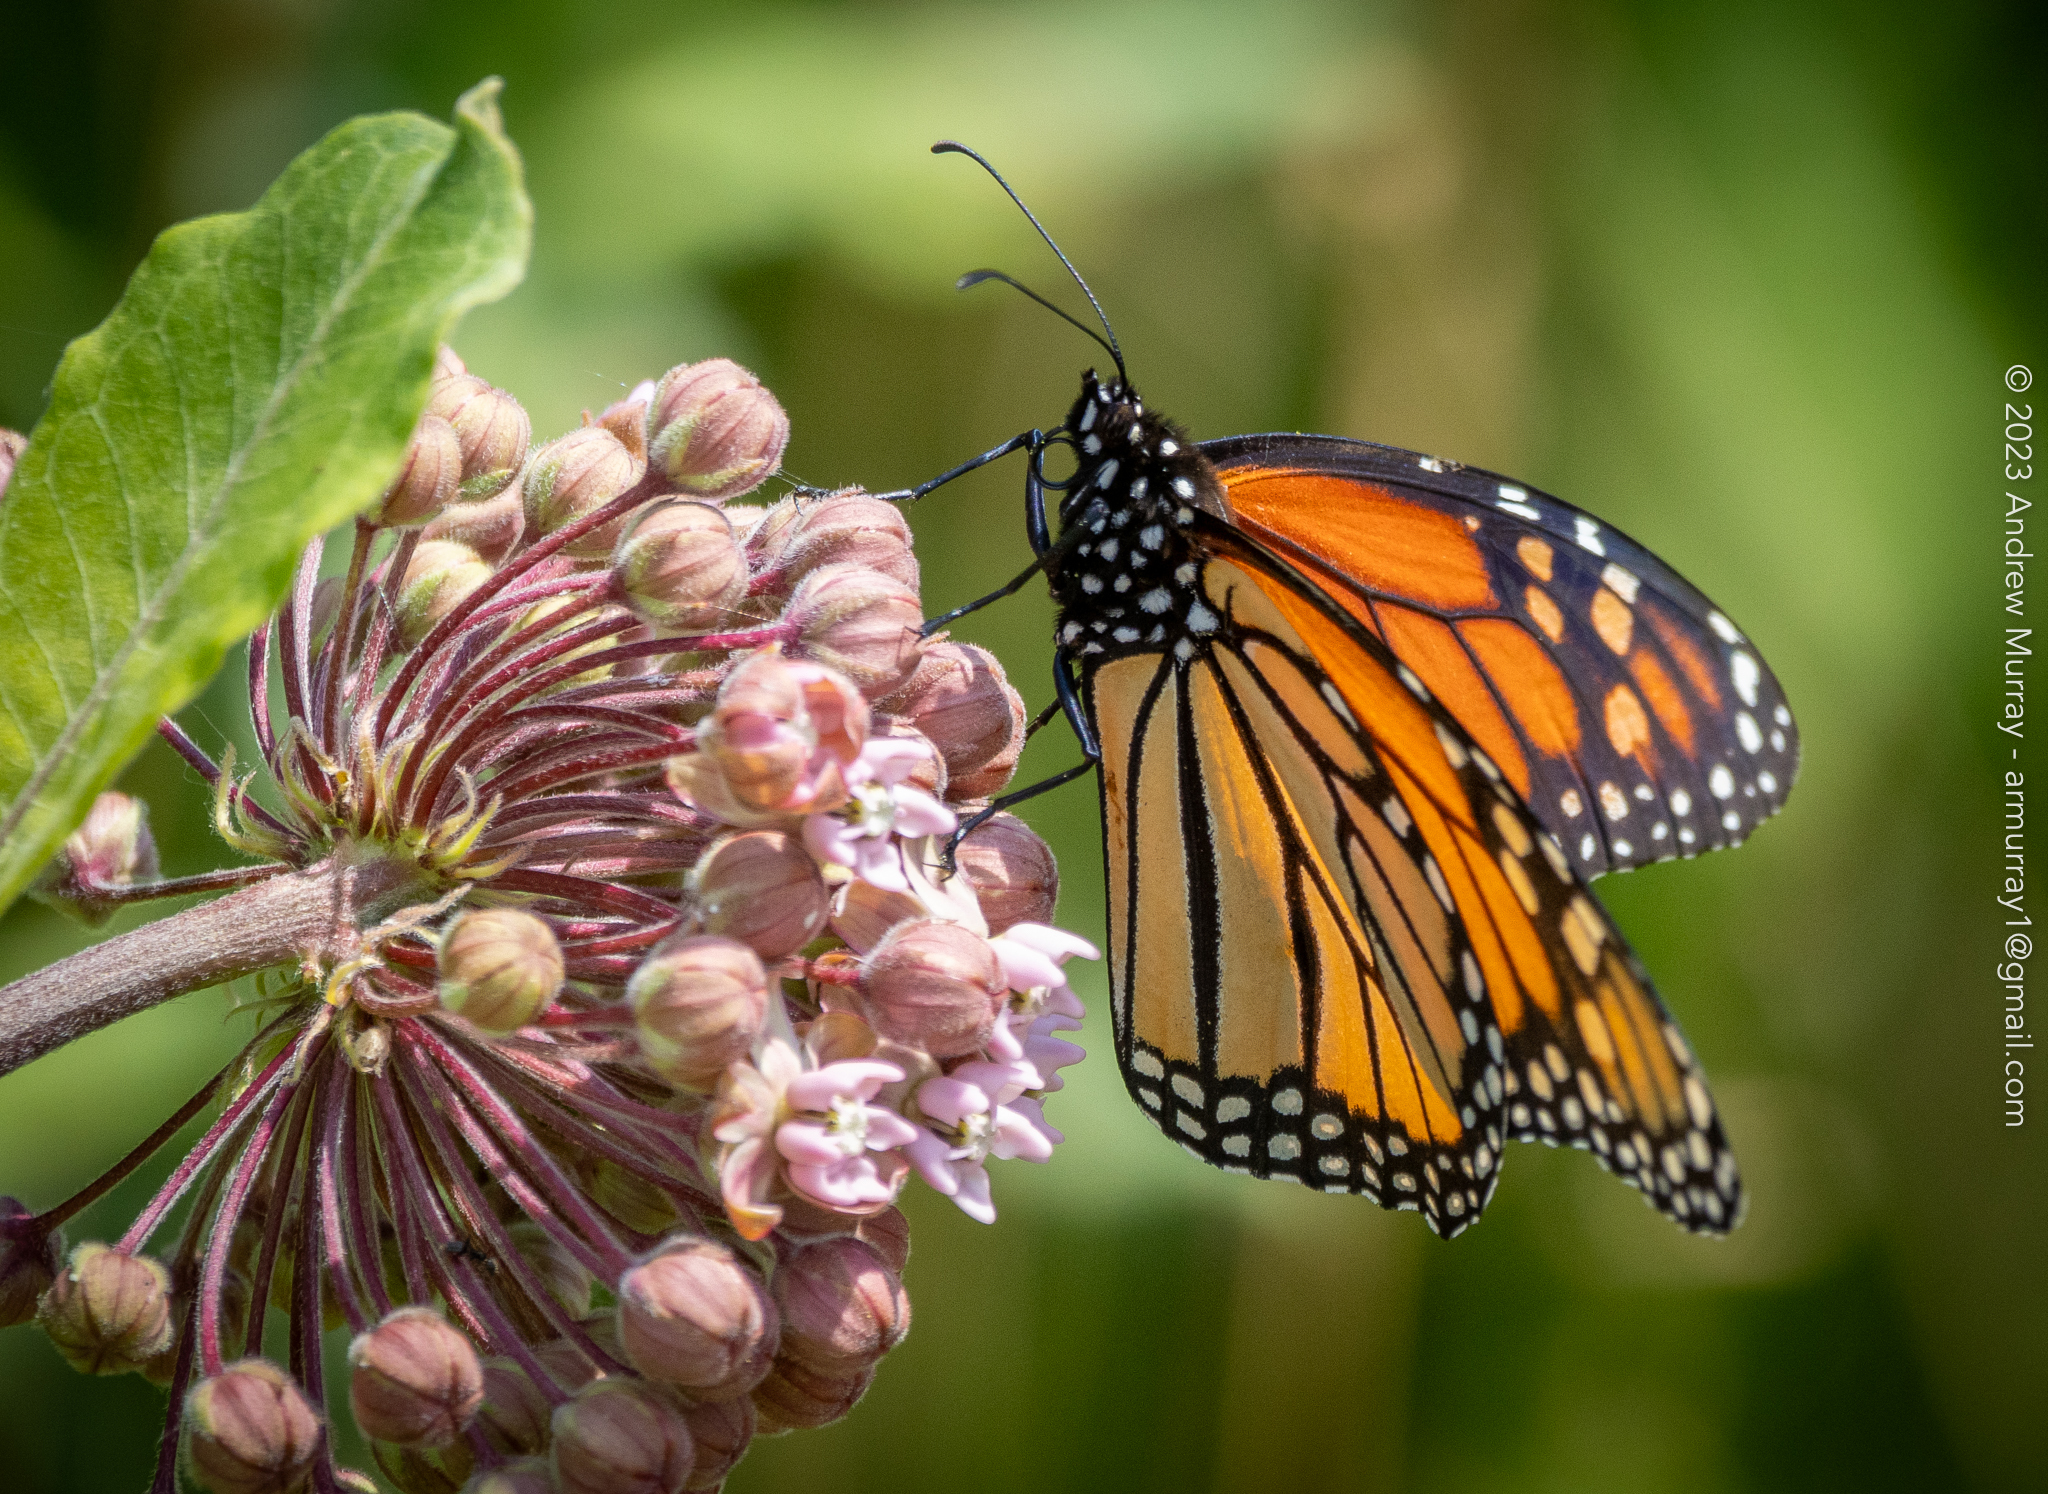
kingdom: Animalia
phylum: Arthropoda
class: Insecta
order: Lepidoptera
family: Nymphalidae
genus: Danaus
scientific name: Danaus plexippus
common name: Monarch
